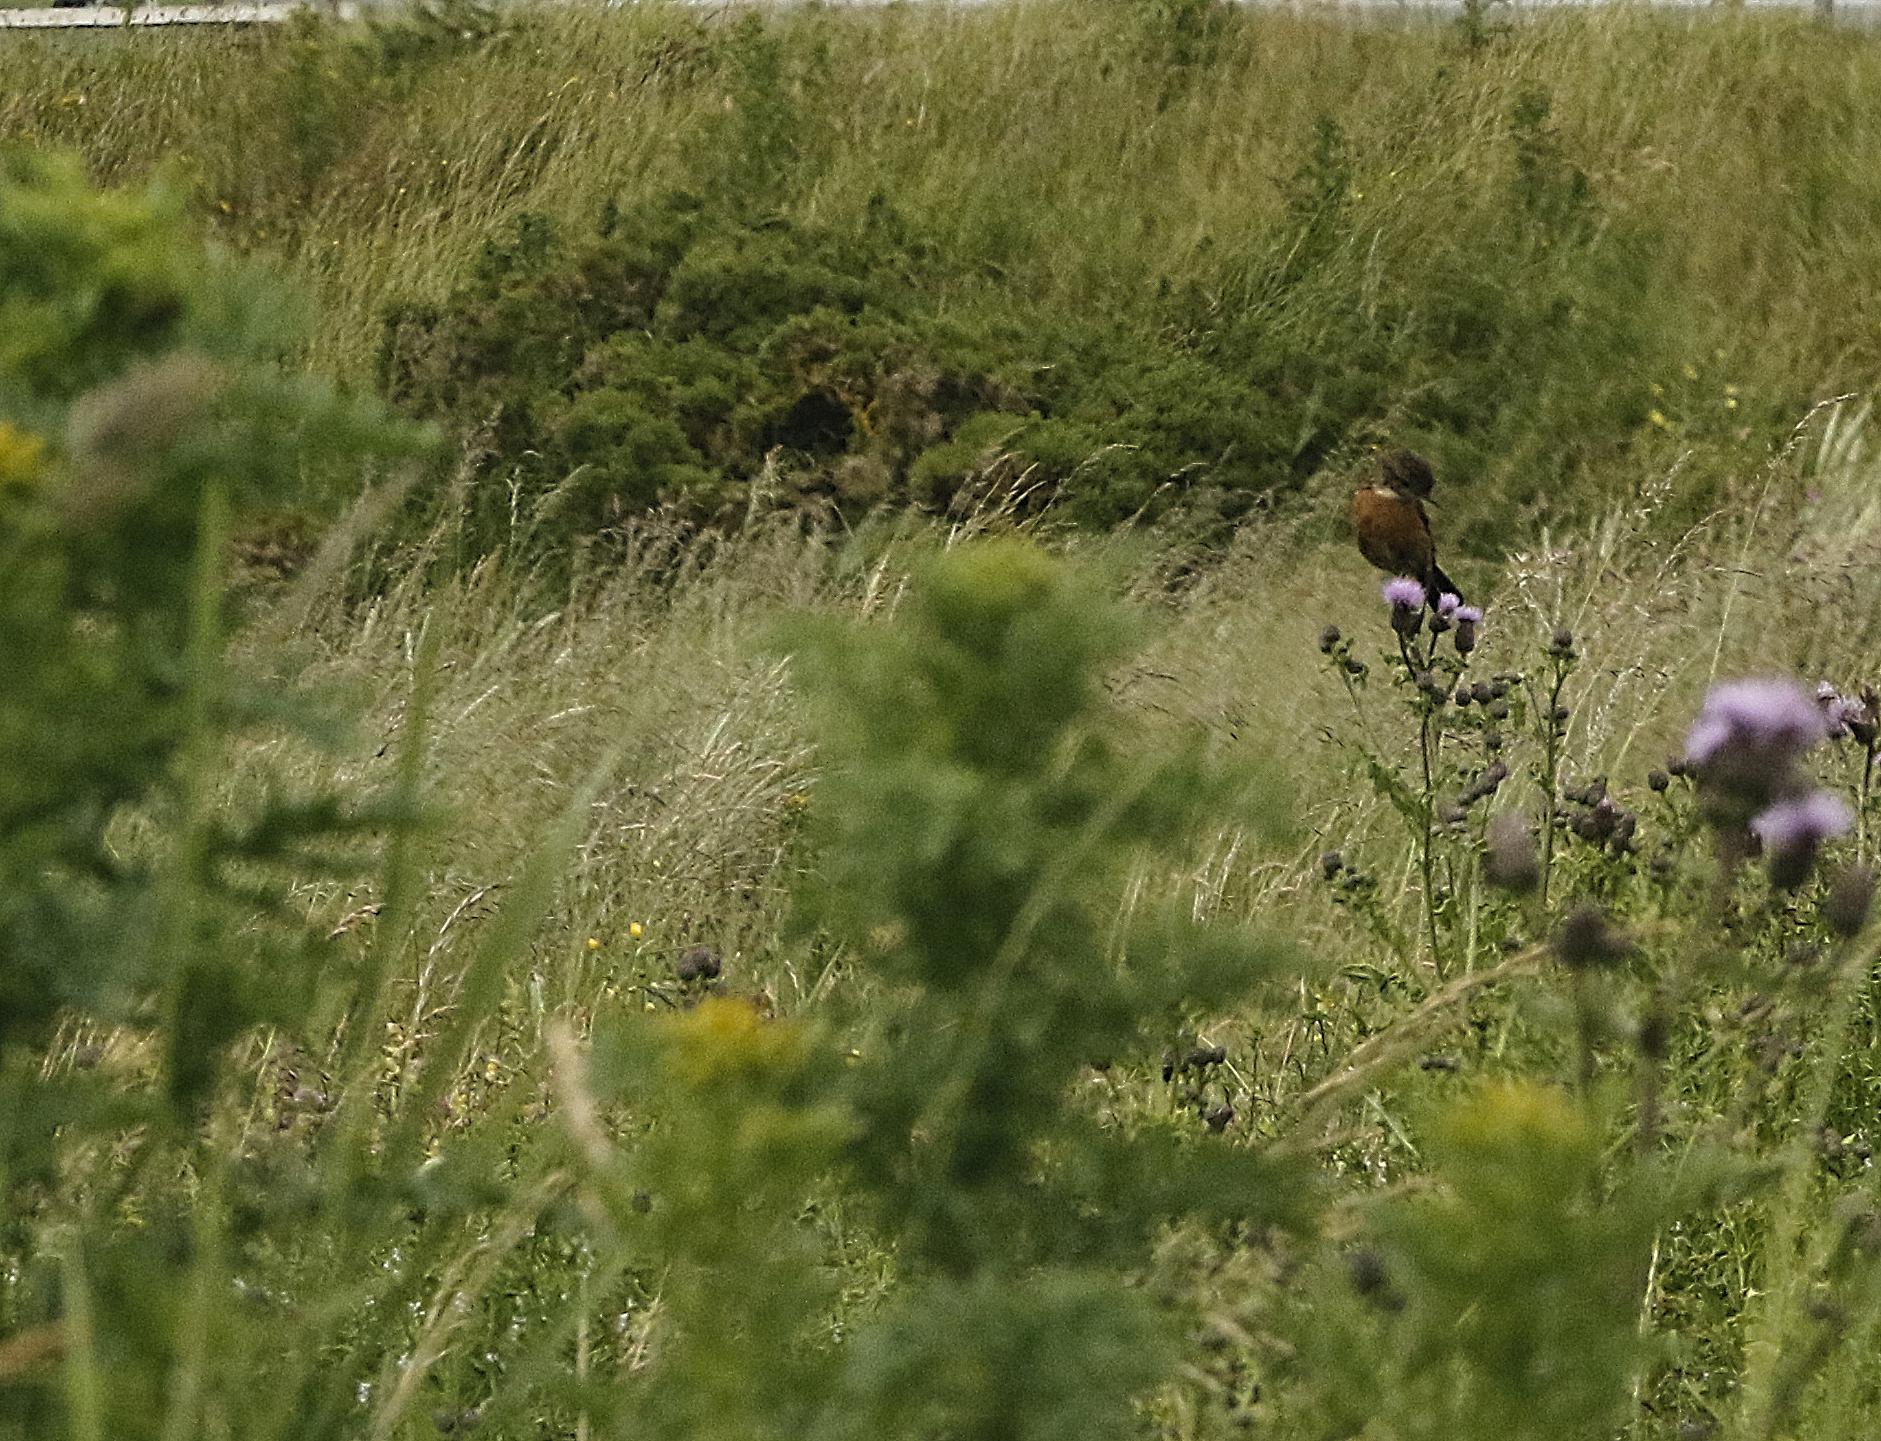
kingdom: Animalia
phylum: Chordata
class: Aves
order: Passeriformes
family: Muscicapidae
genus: Saxicola
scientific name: Saxicola rubicola
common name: European stonechat
